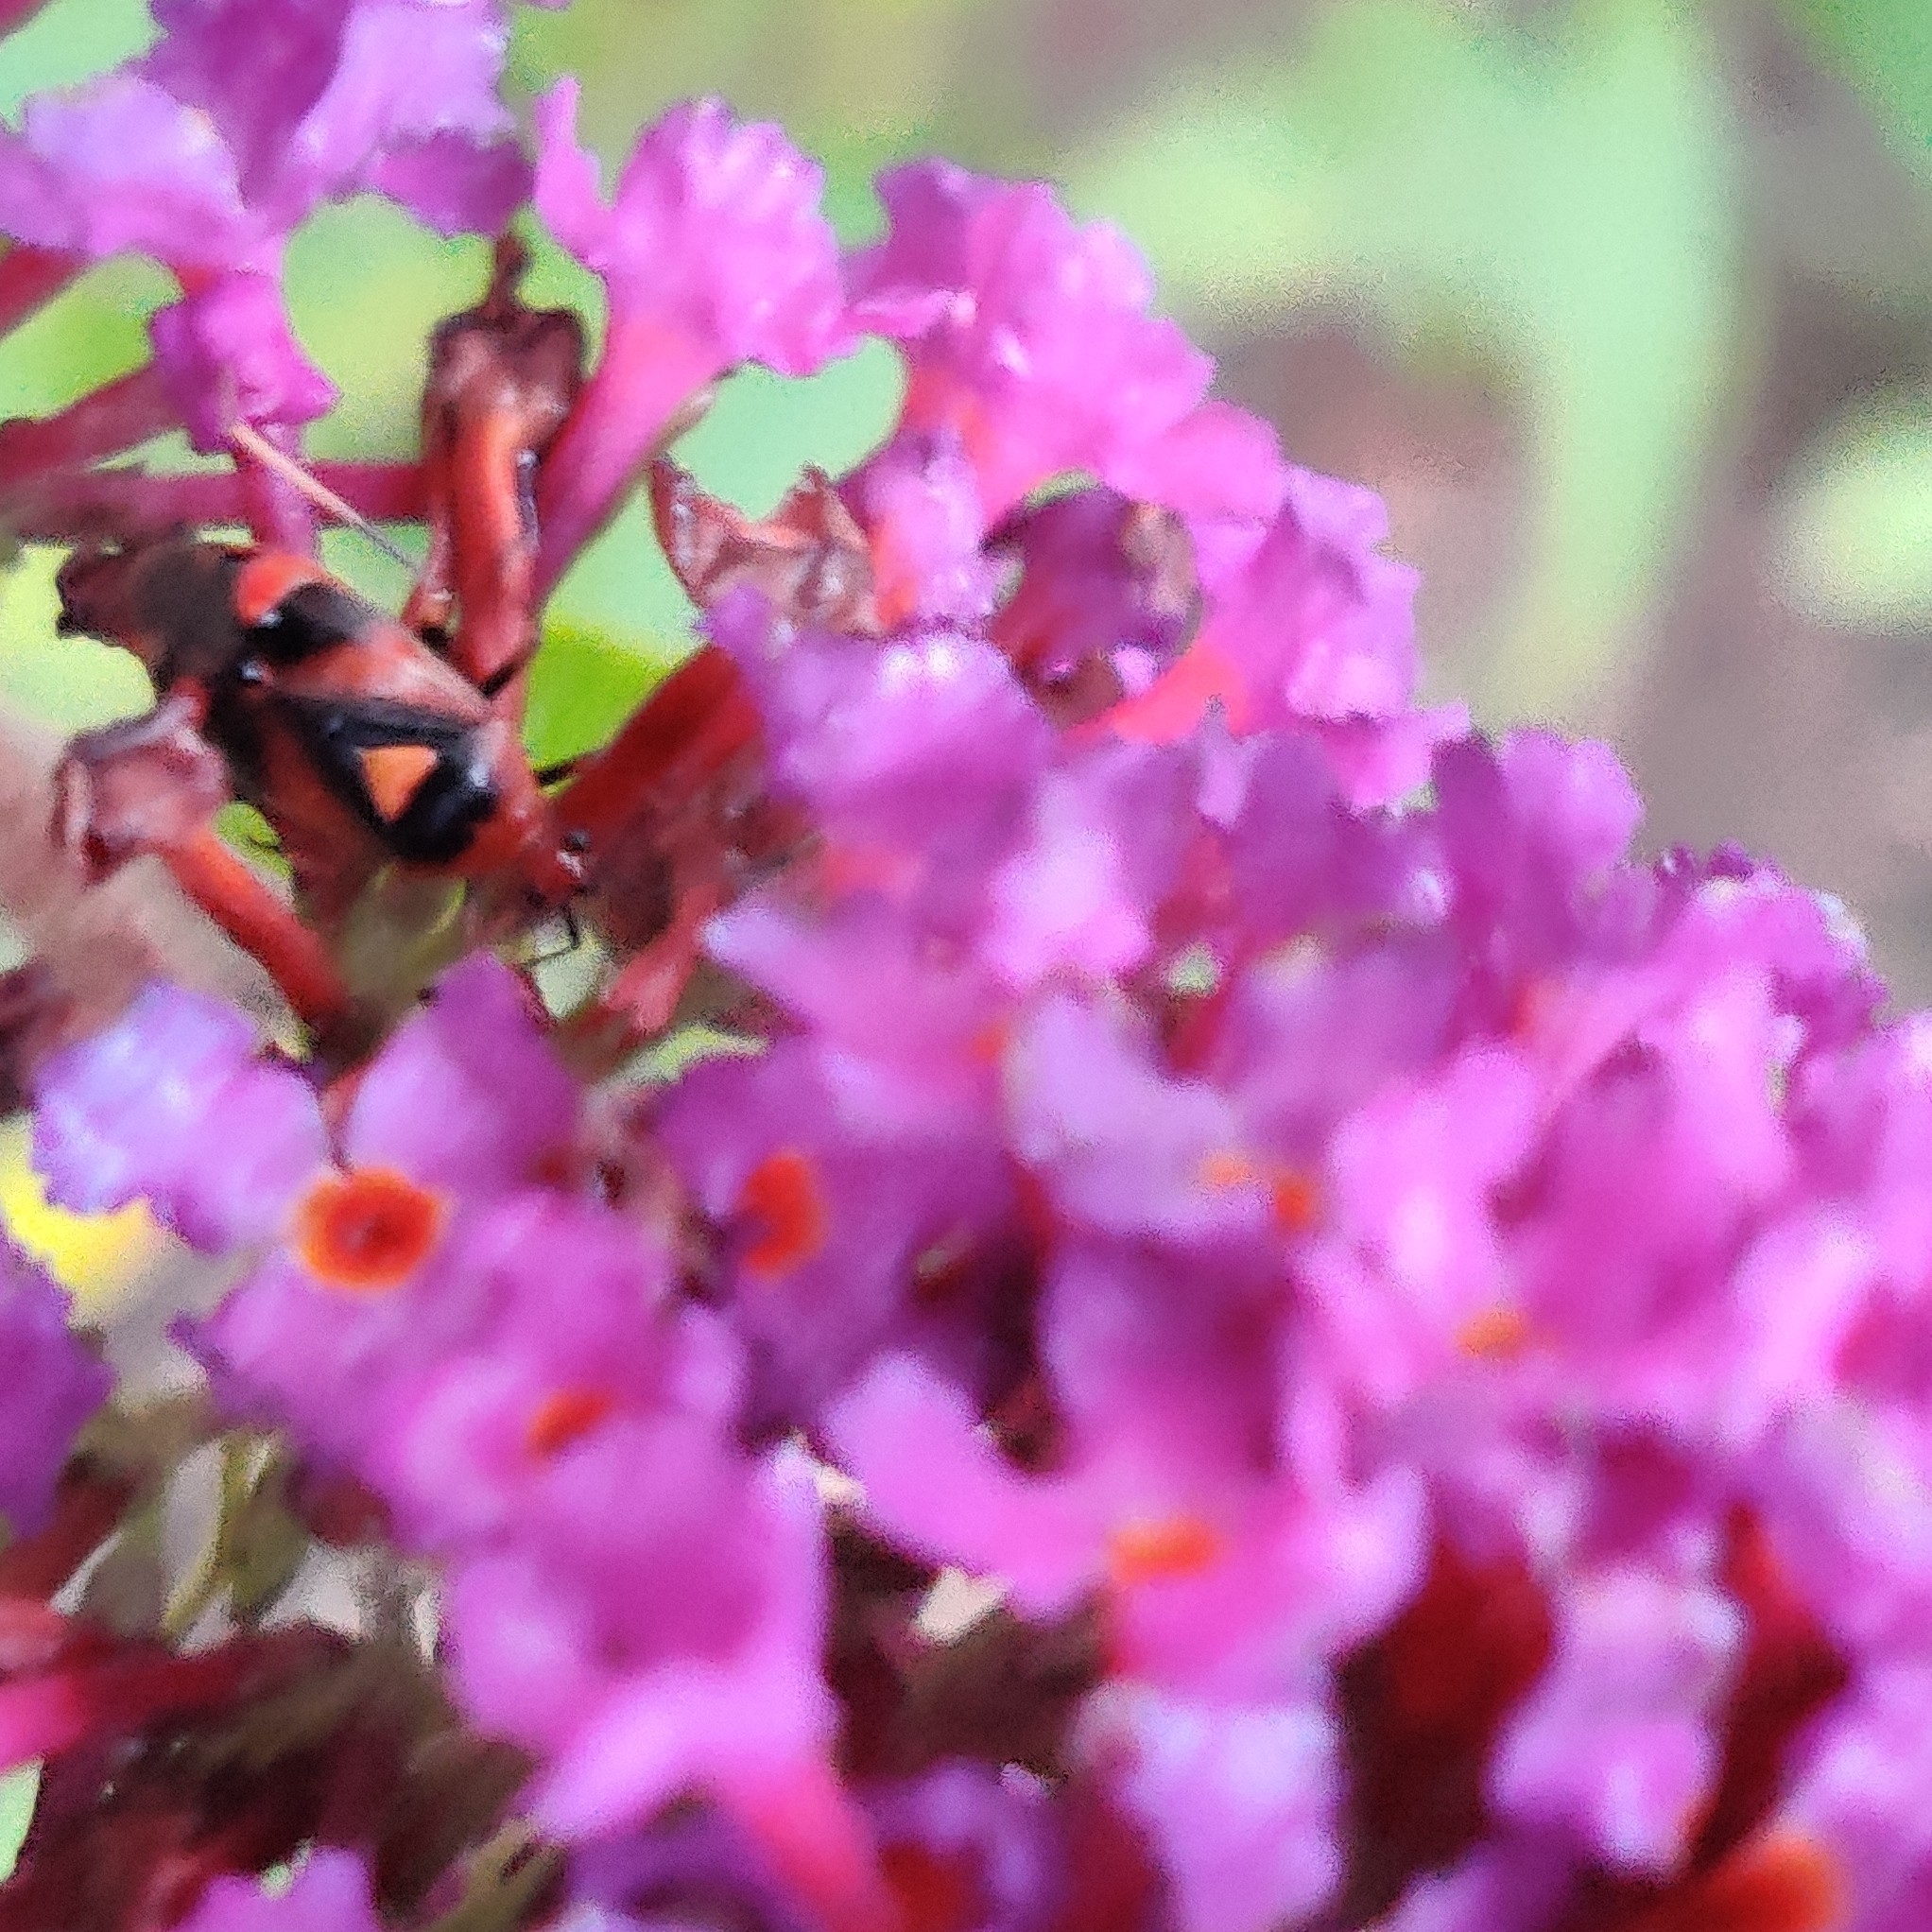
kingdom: Animalia
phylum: Arthropoda
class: Insecta
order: Hemiptera
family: Miridae
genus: Deraeocoris
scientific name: Deraeocoris ruber
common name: Plant bug
